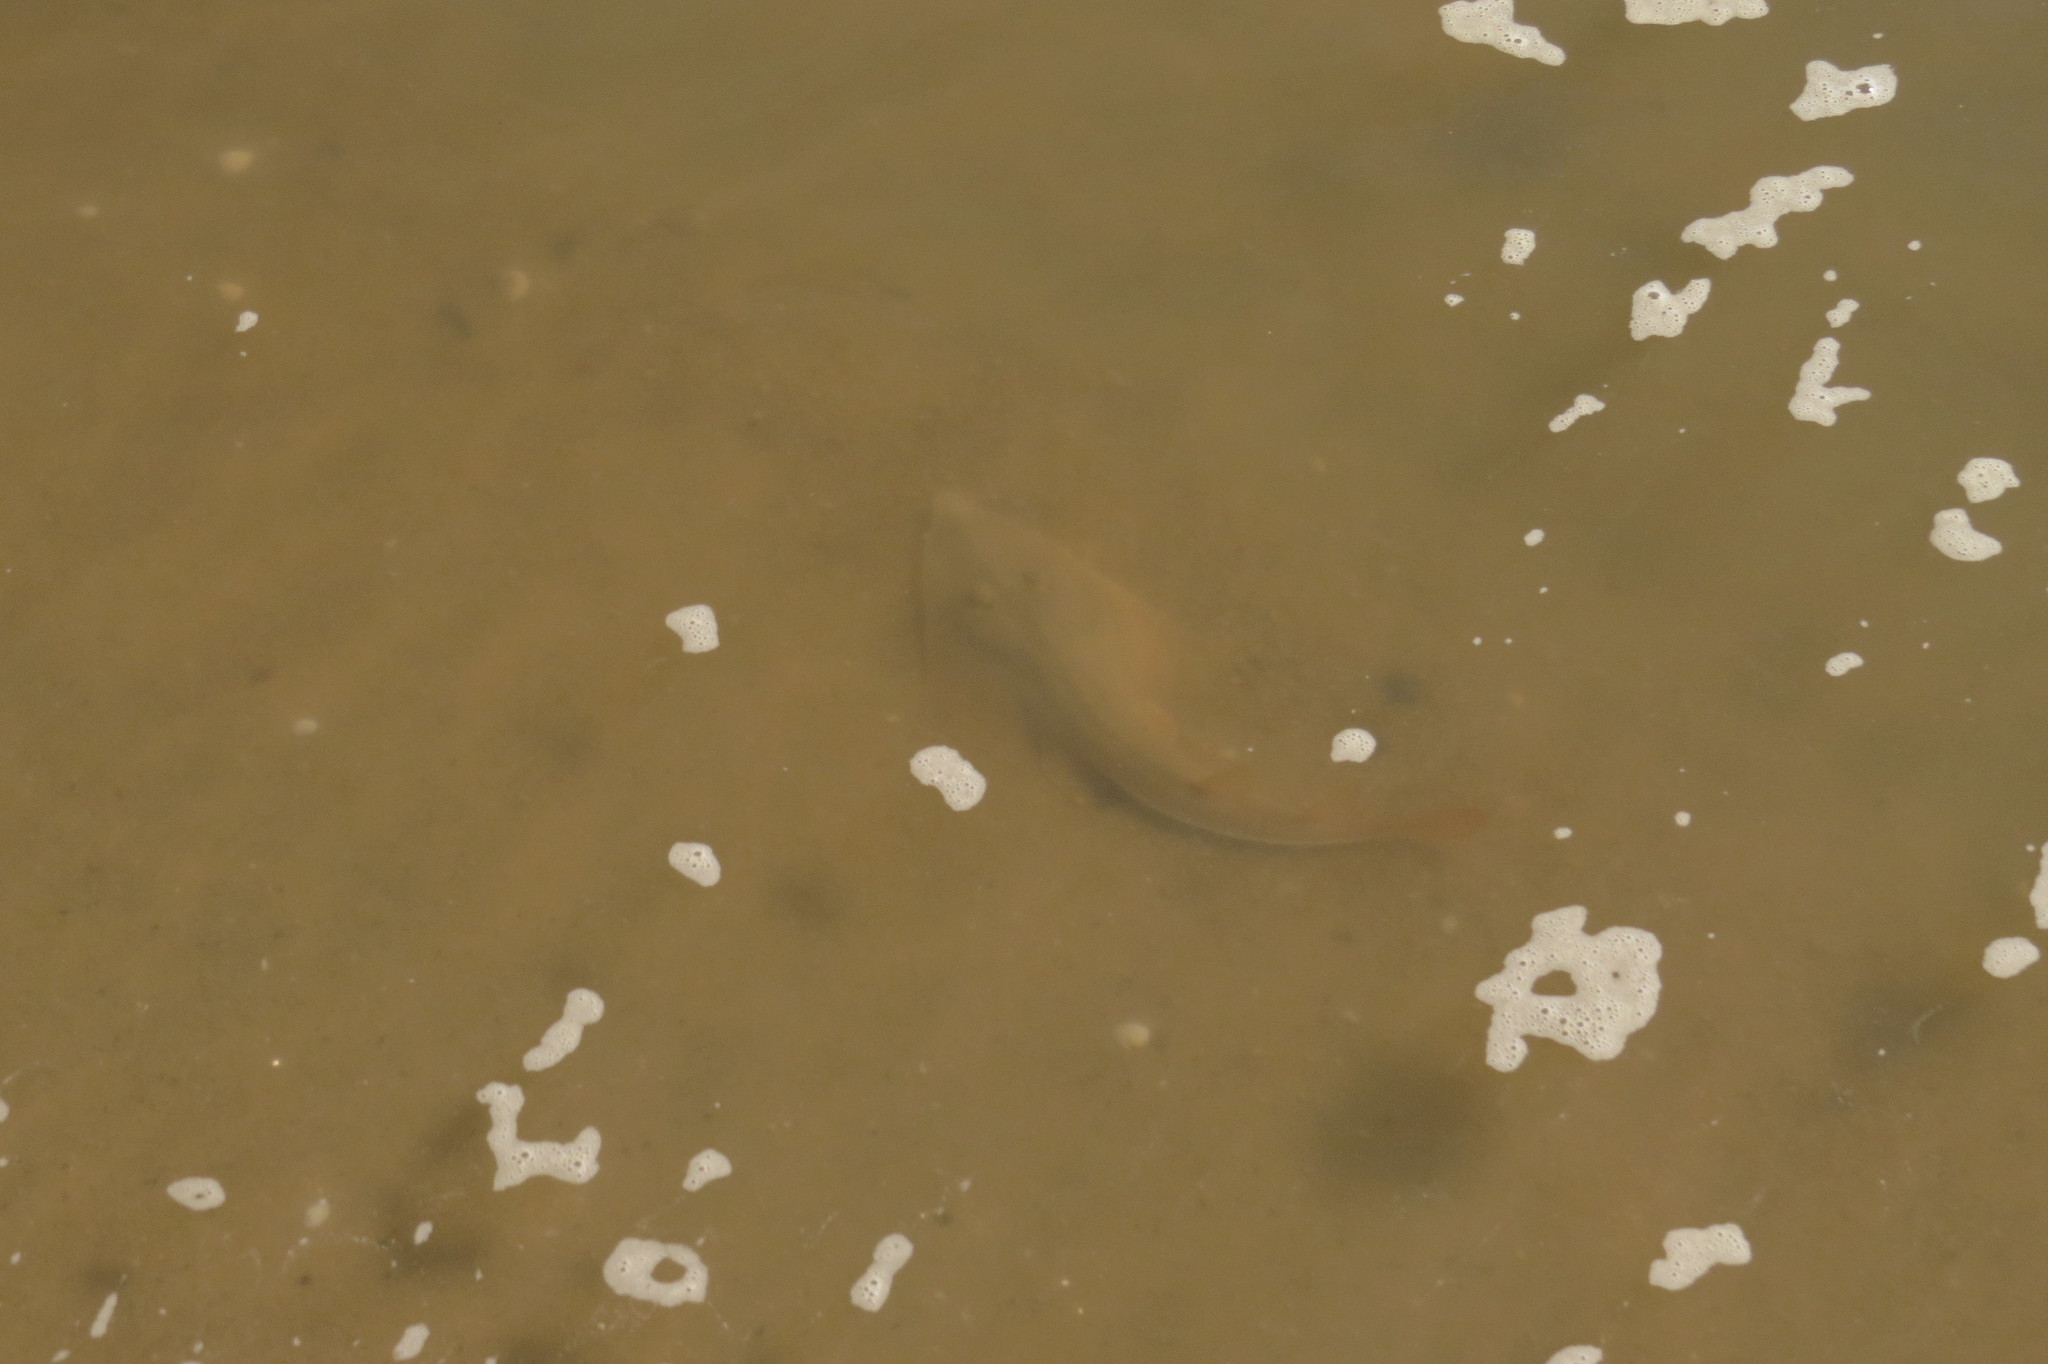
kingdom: Animalia
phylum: Chordata
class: Elasmobranchii
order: Rhinopristiformes
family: Glaucostegidae
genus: Glaucostegus
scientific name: Glaucostegus typus
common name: Giant shovelnose ray
